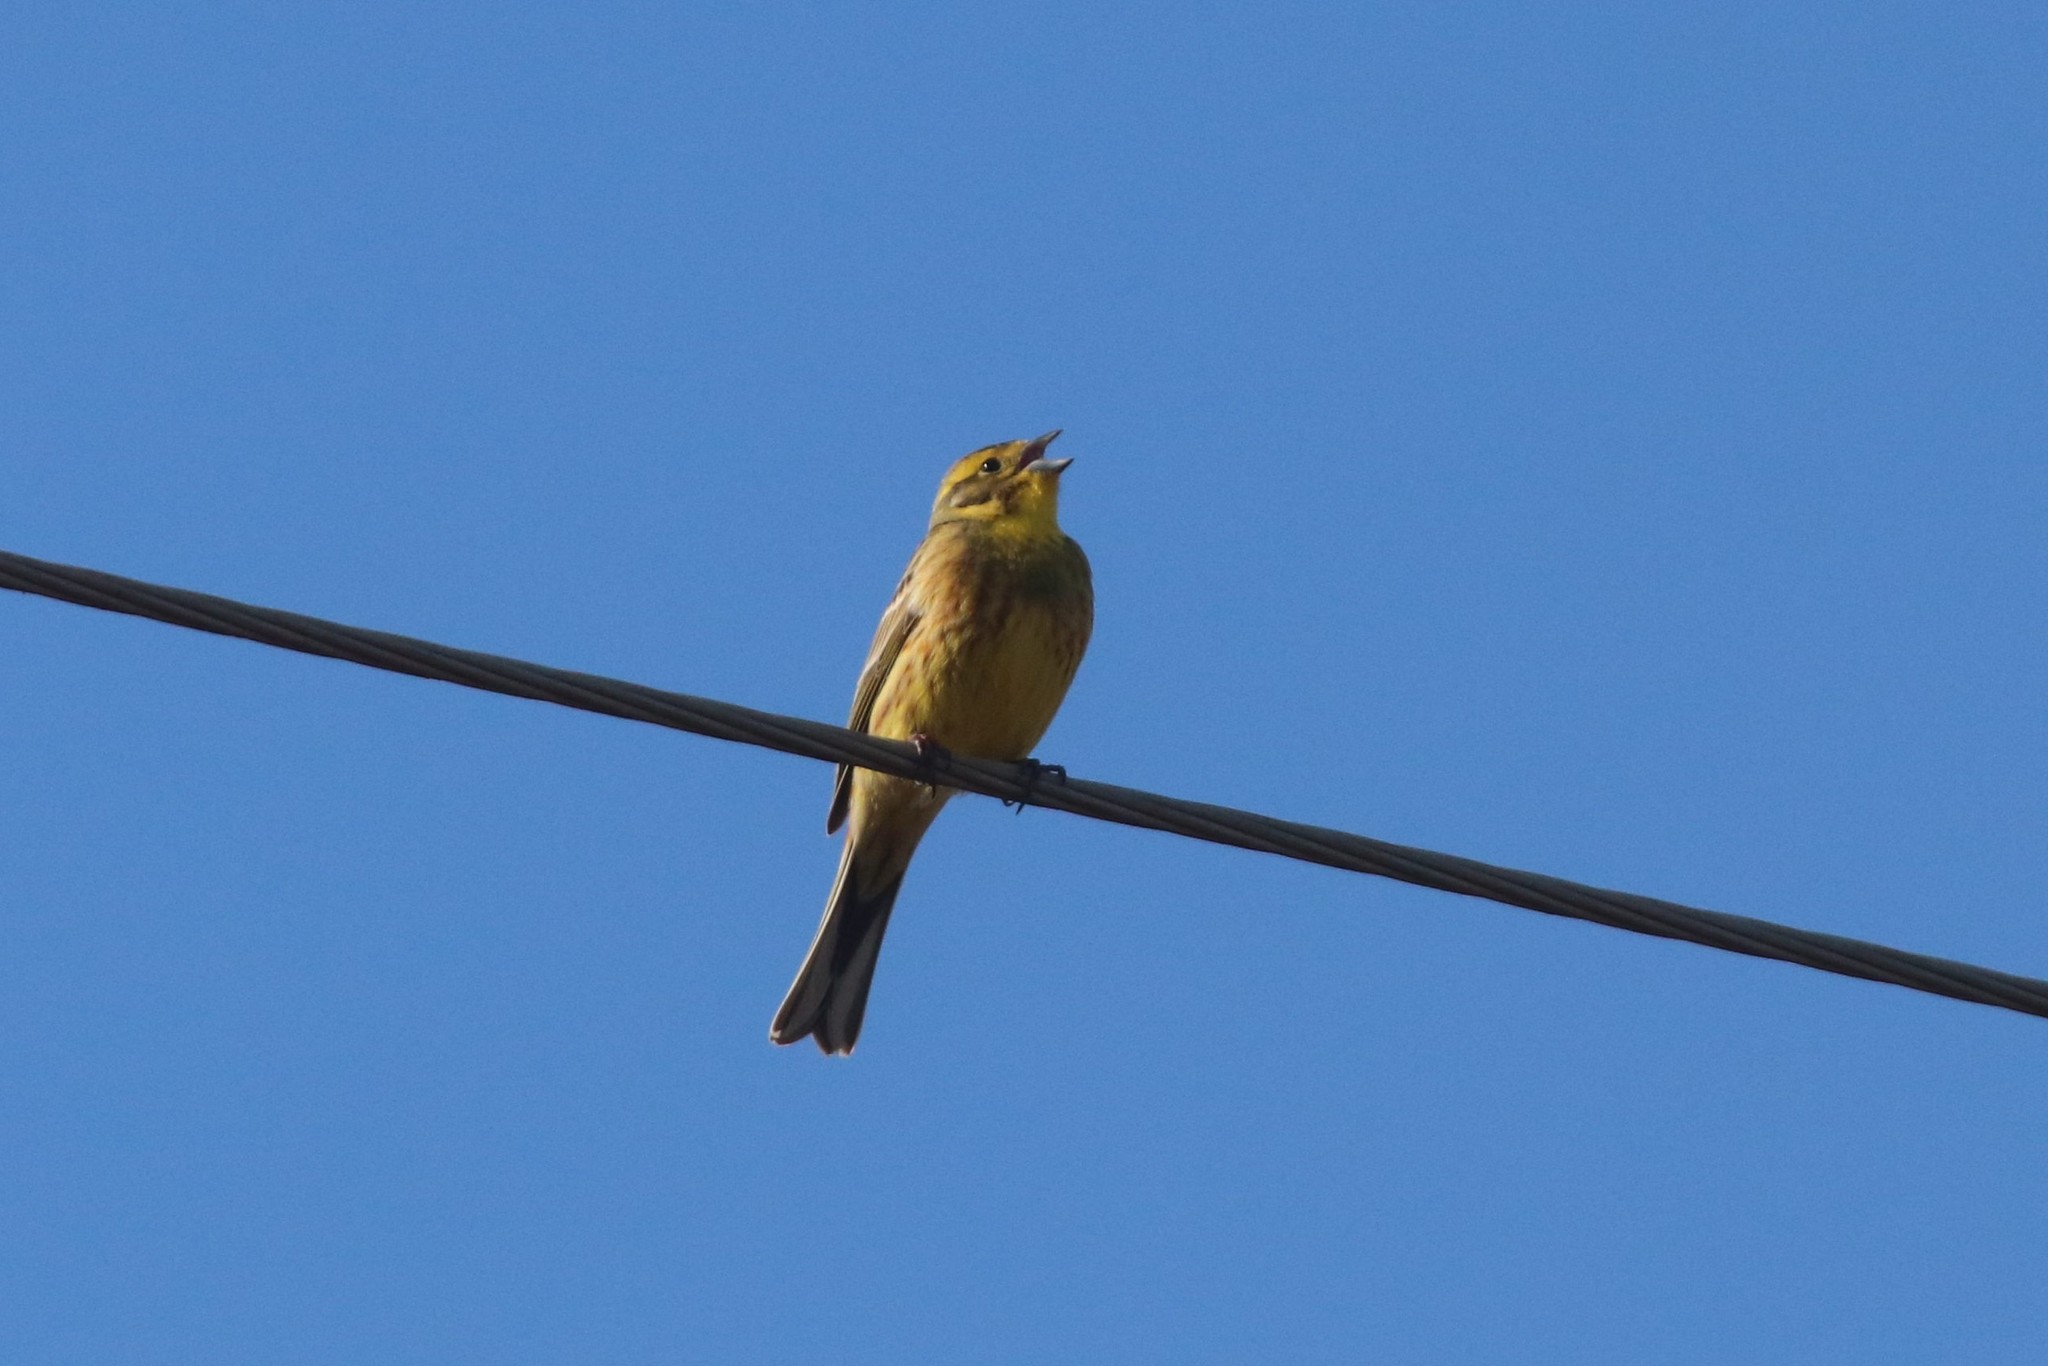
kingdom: Animalia
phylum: Chordata
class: Aves
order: Passeriformes
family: Emberizidae
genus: Emberiza
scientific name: Emberiza citrinella
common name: Yellowhammer
